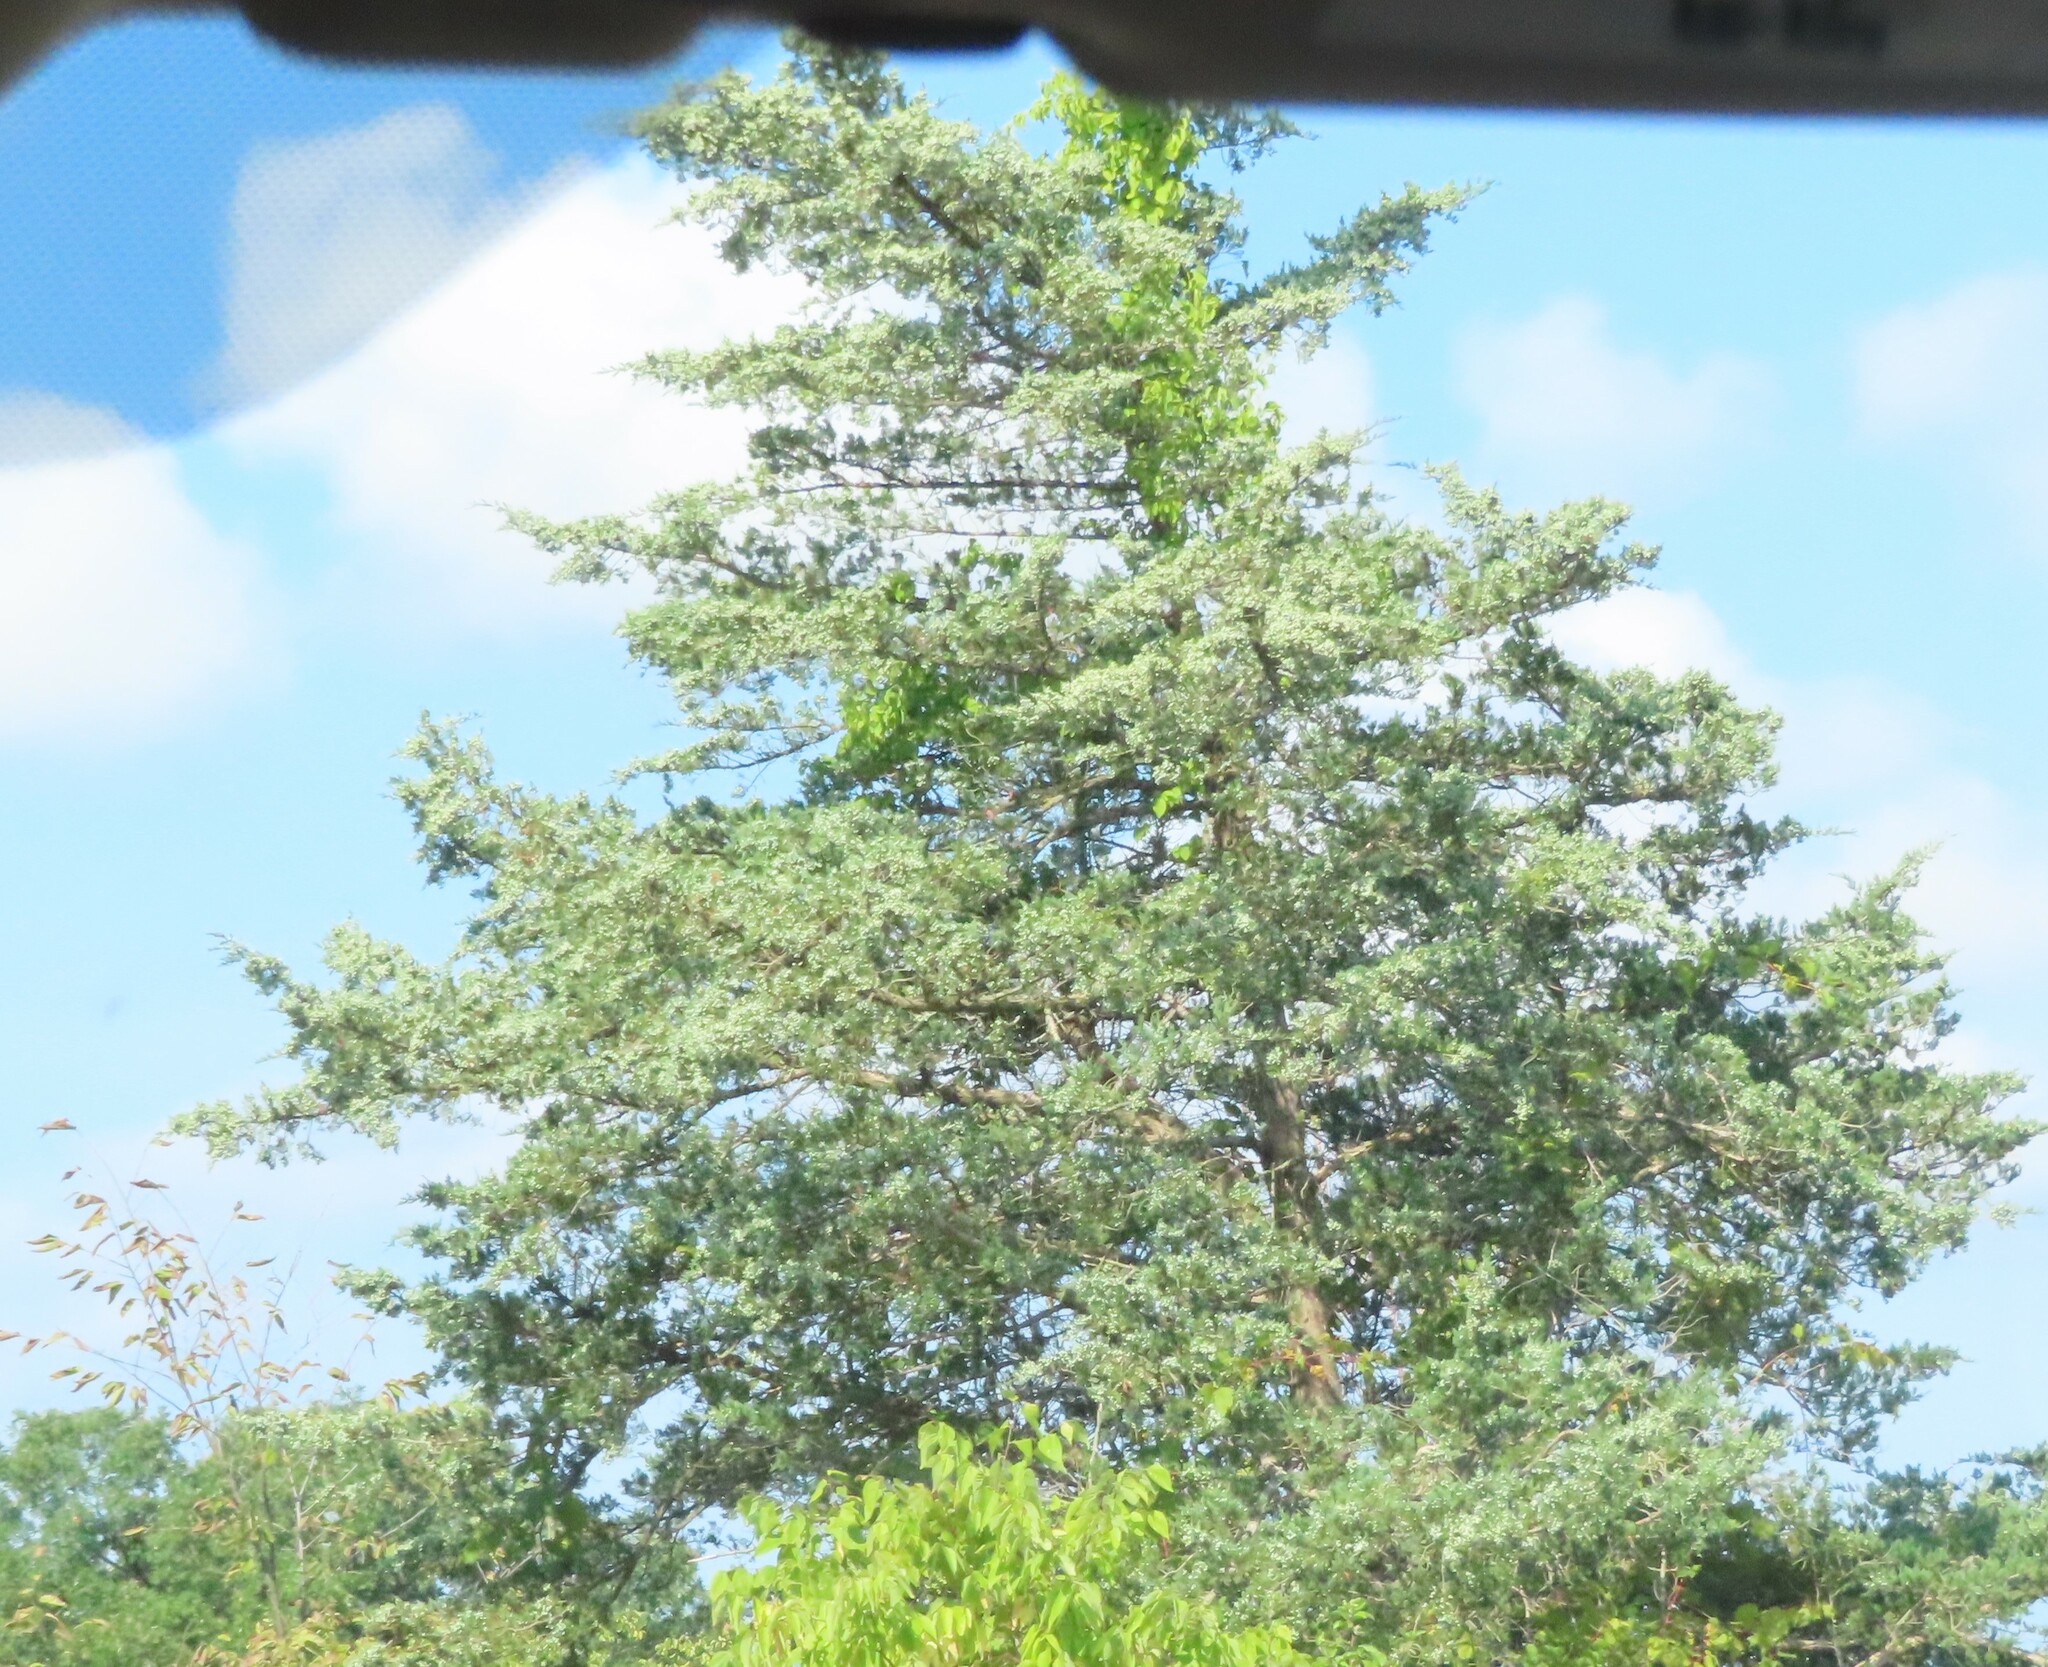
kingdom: Plantae
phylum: Tracheophyta
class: Pinopsida
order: Pinales
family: Cupressaceae
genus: Juniperus
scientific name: Juniperus virginiana
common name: Red juniper
